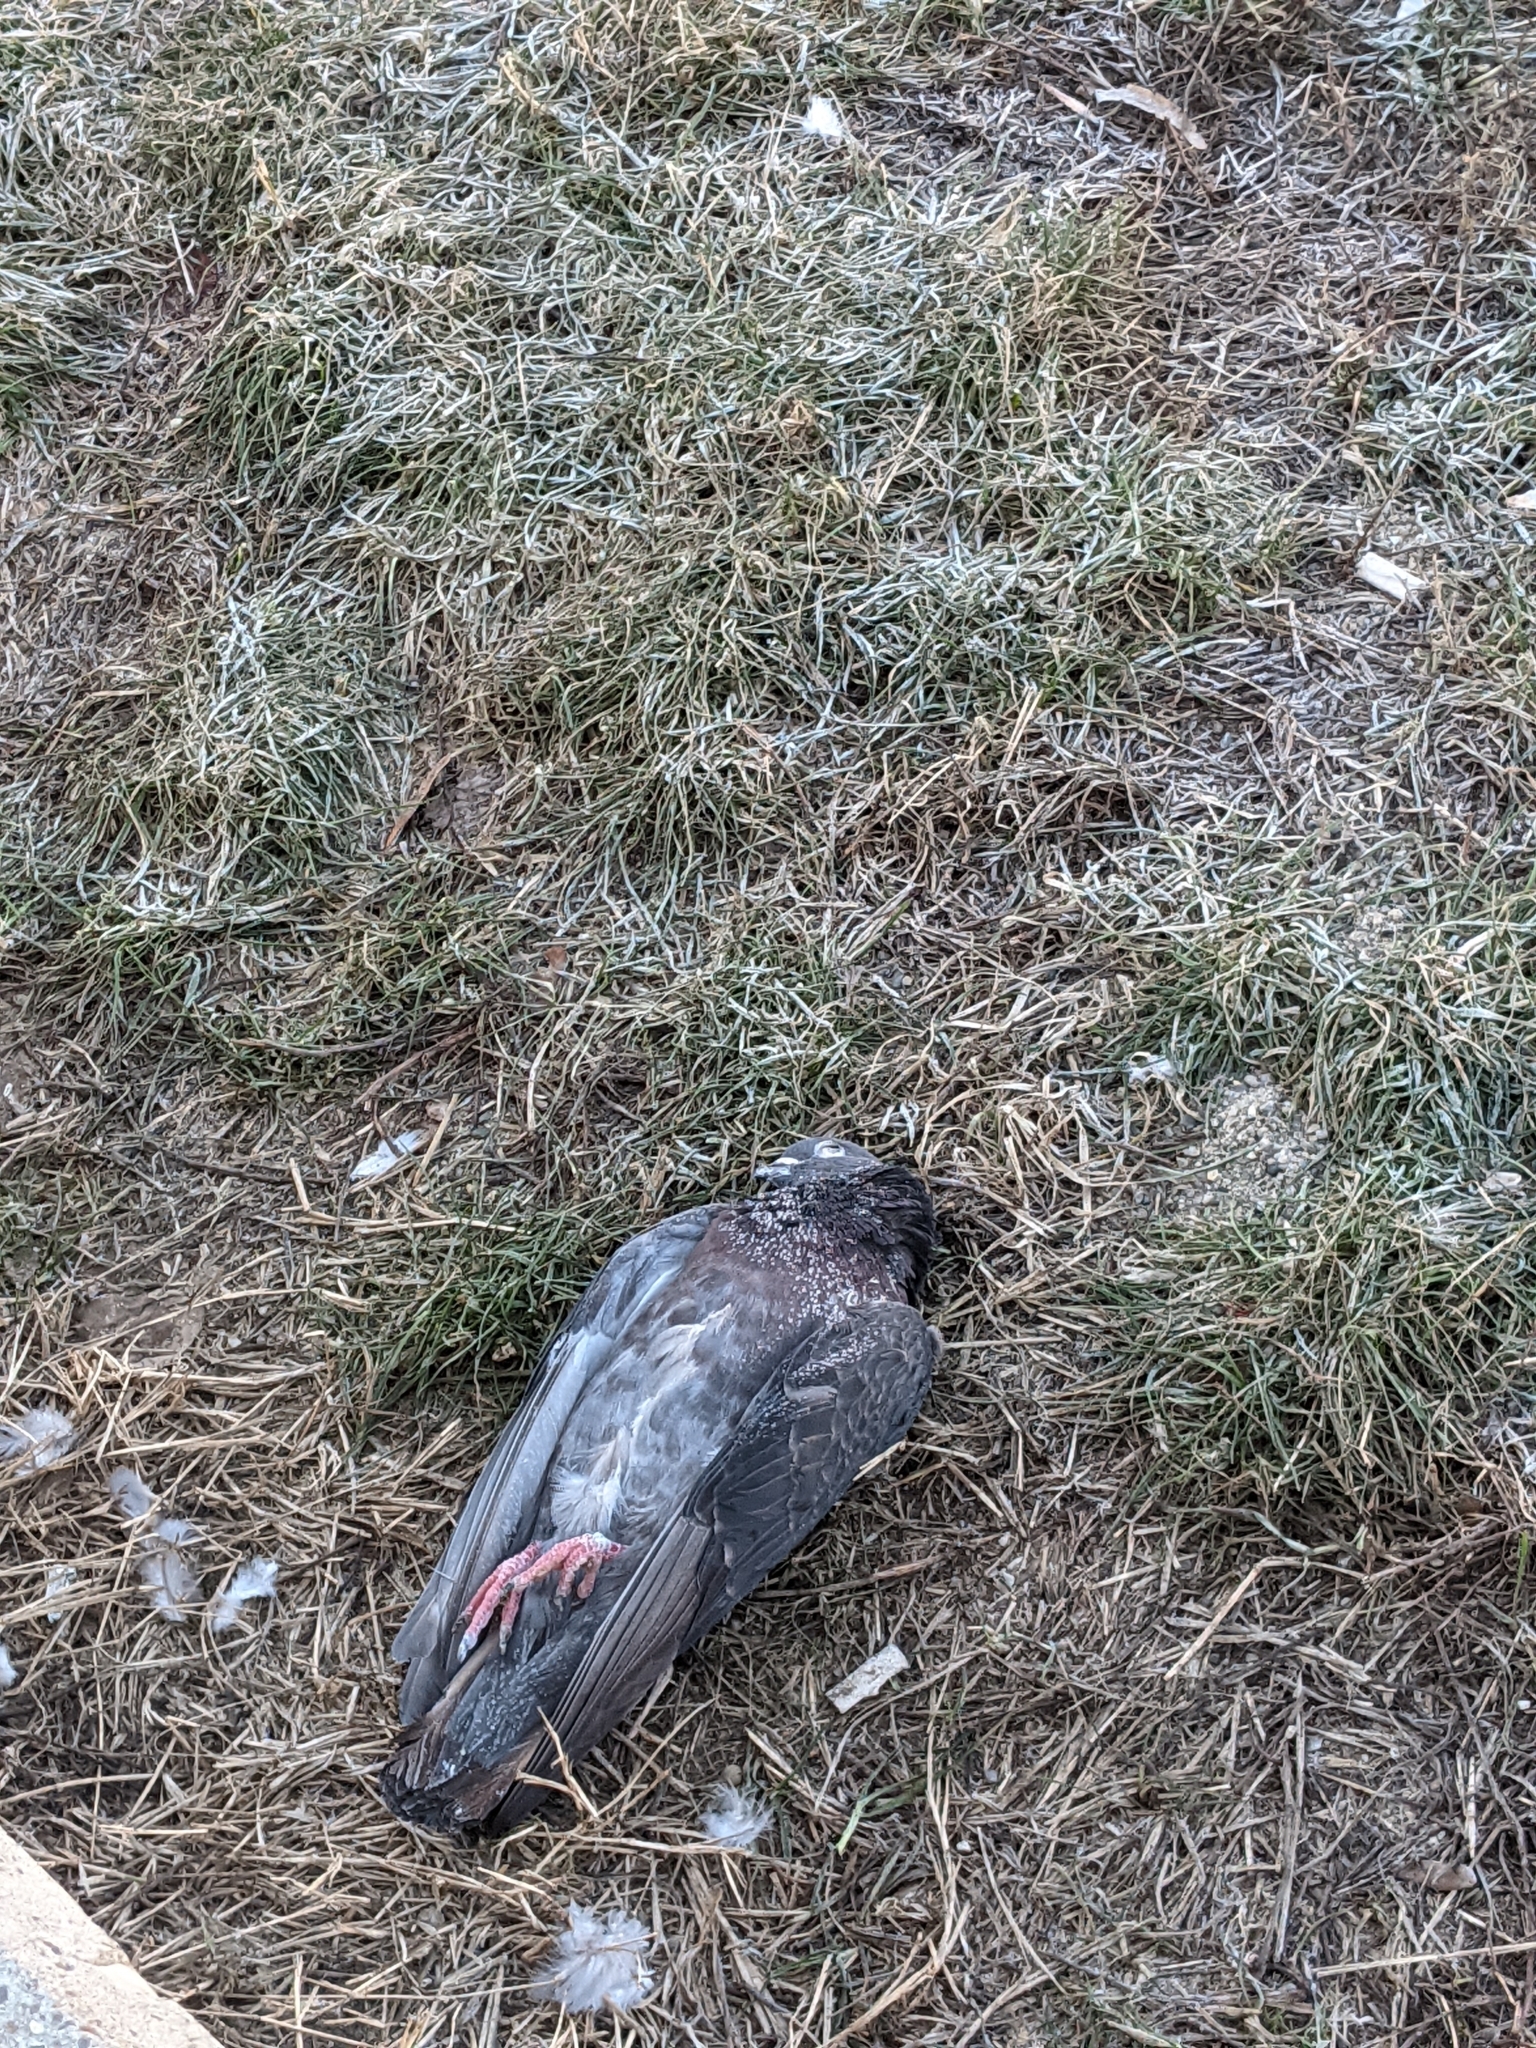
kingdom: Animalia
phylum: Chordata
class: Aves
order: Columbiformes
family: Columbidae
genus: Columba
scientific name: Columba livia
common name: Rock pigeon
